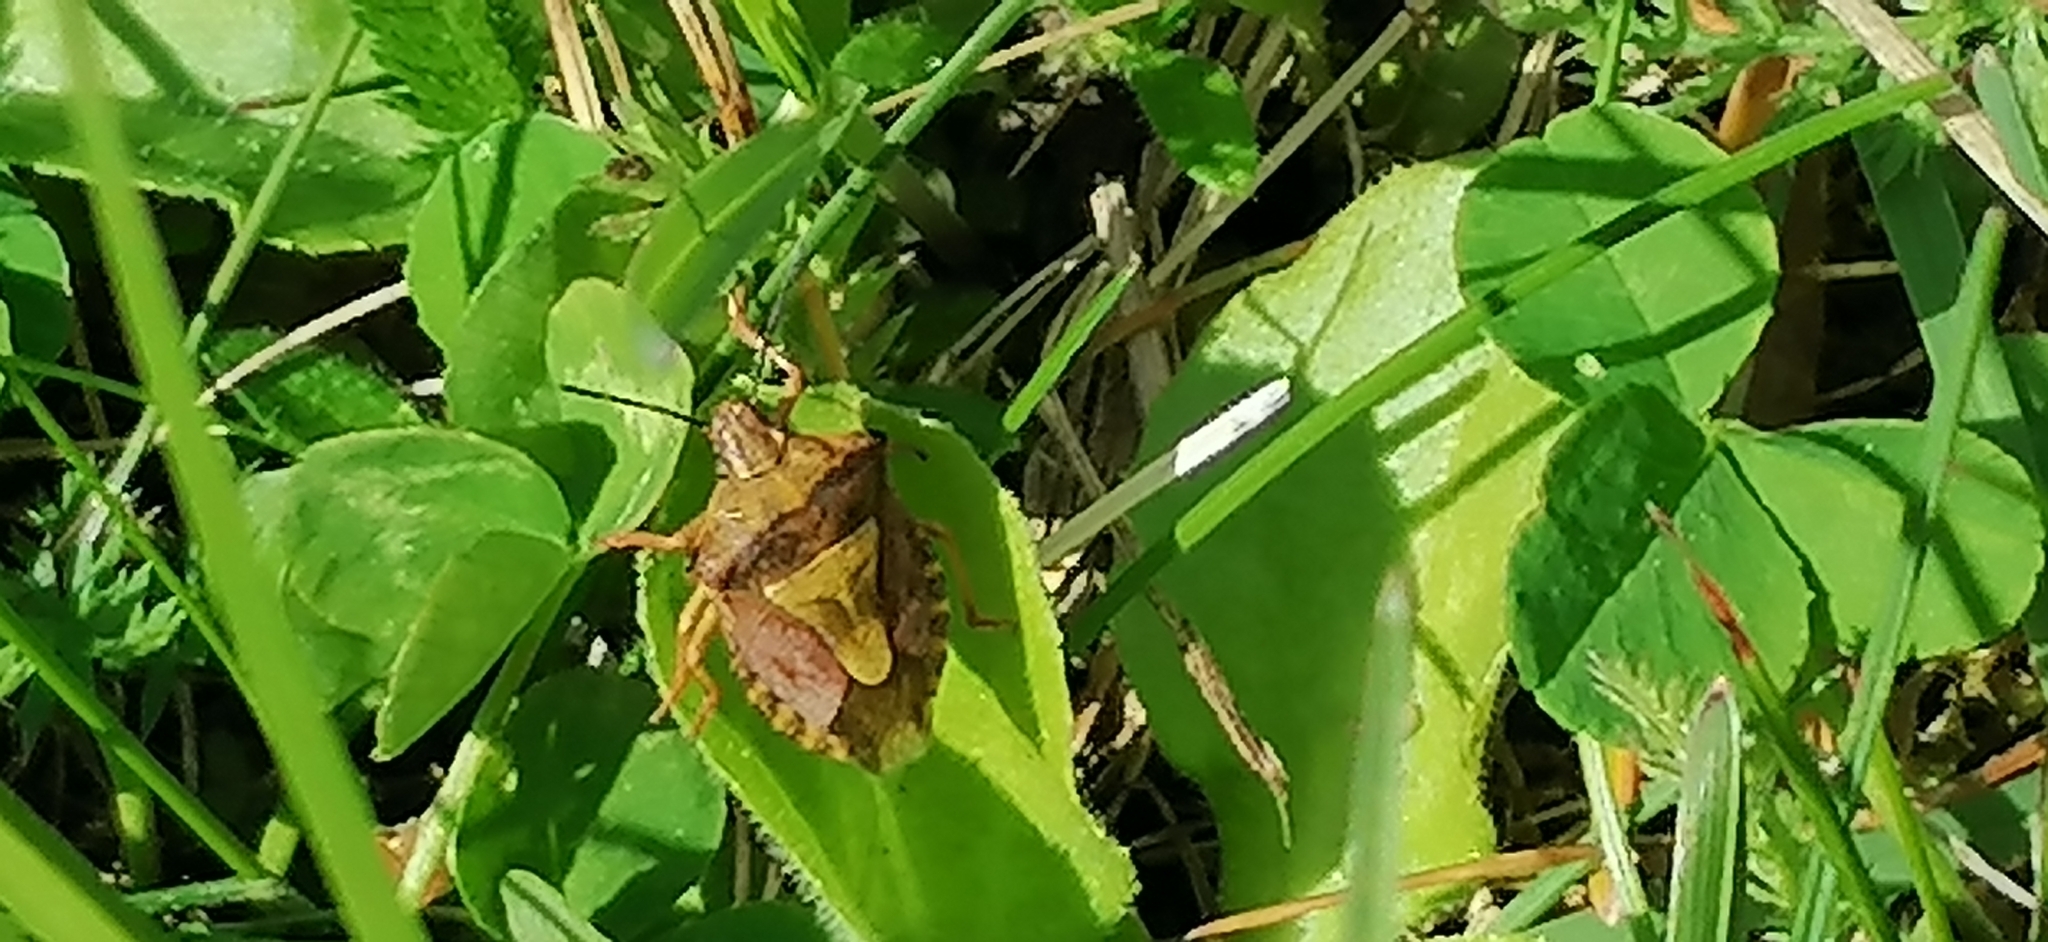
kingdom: Animalia
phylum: Arthropoda
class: Insecta
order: Hemiptera
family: Pentatomidae
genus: Carpocoris
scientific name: Carpocoris purpureipennis
